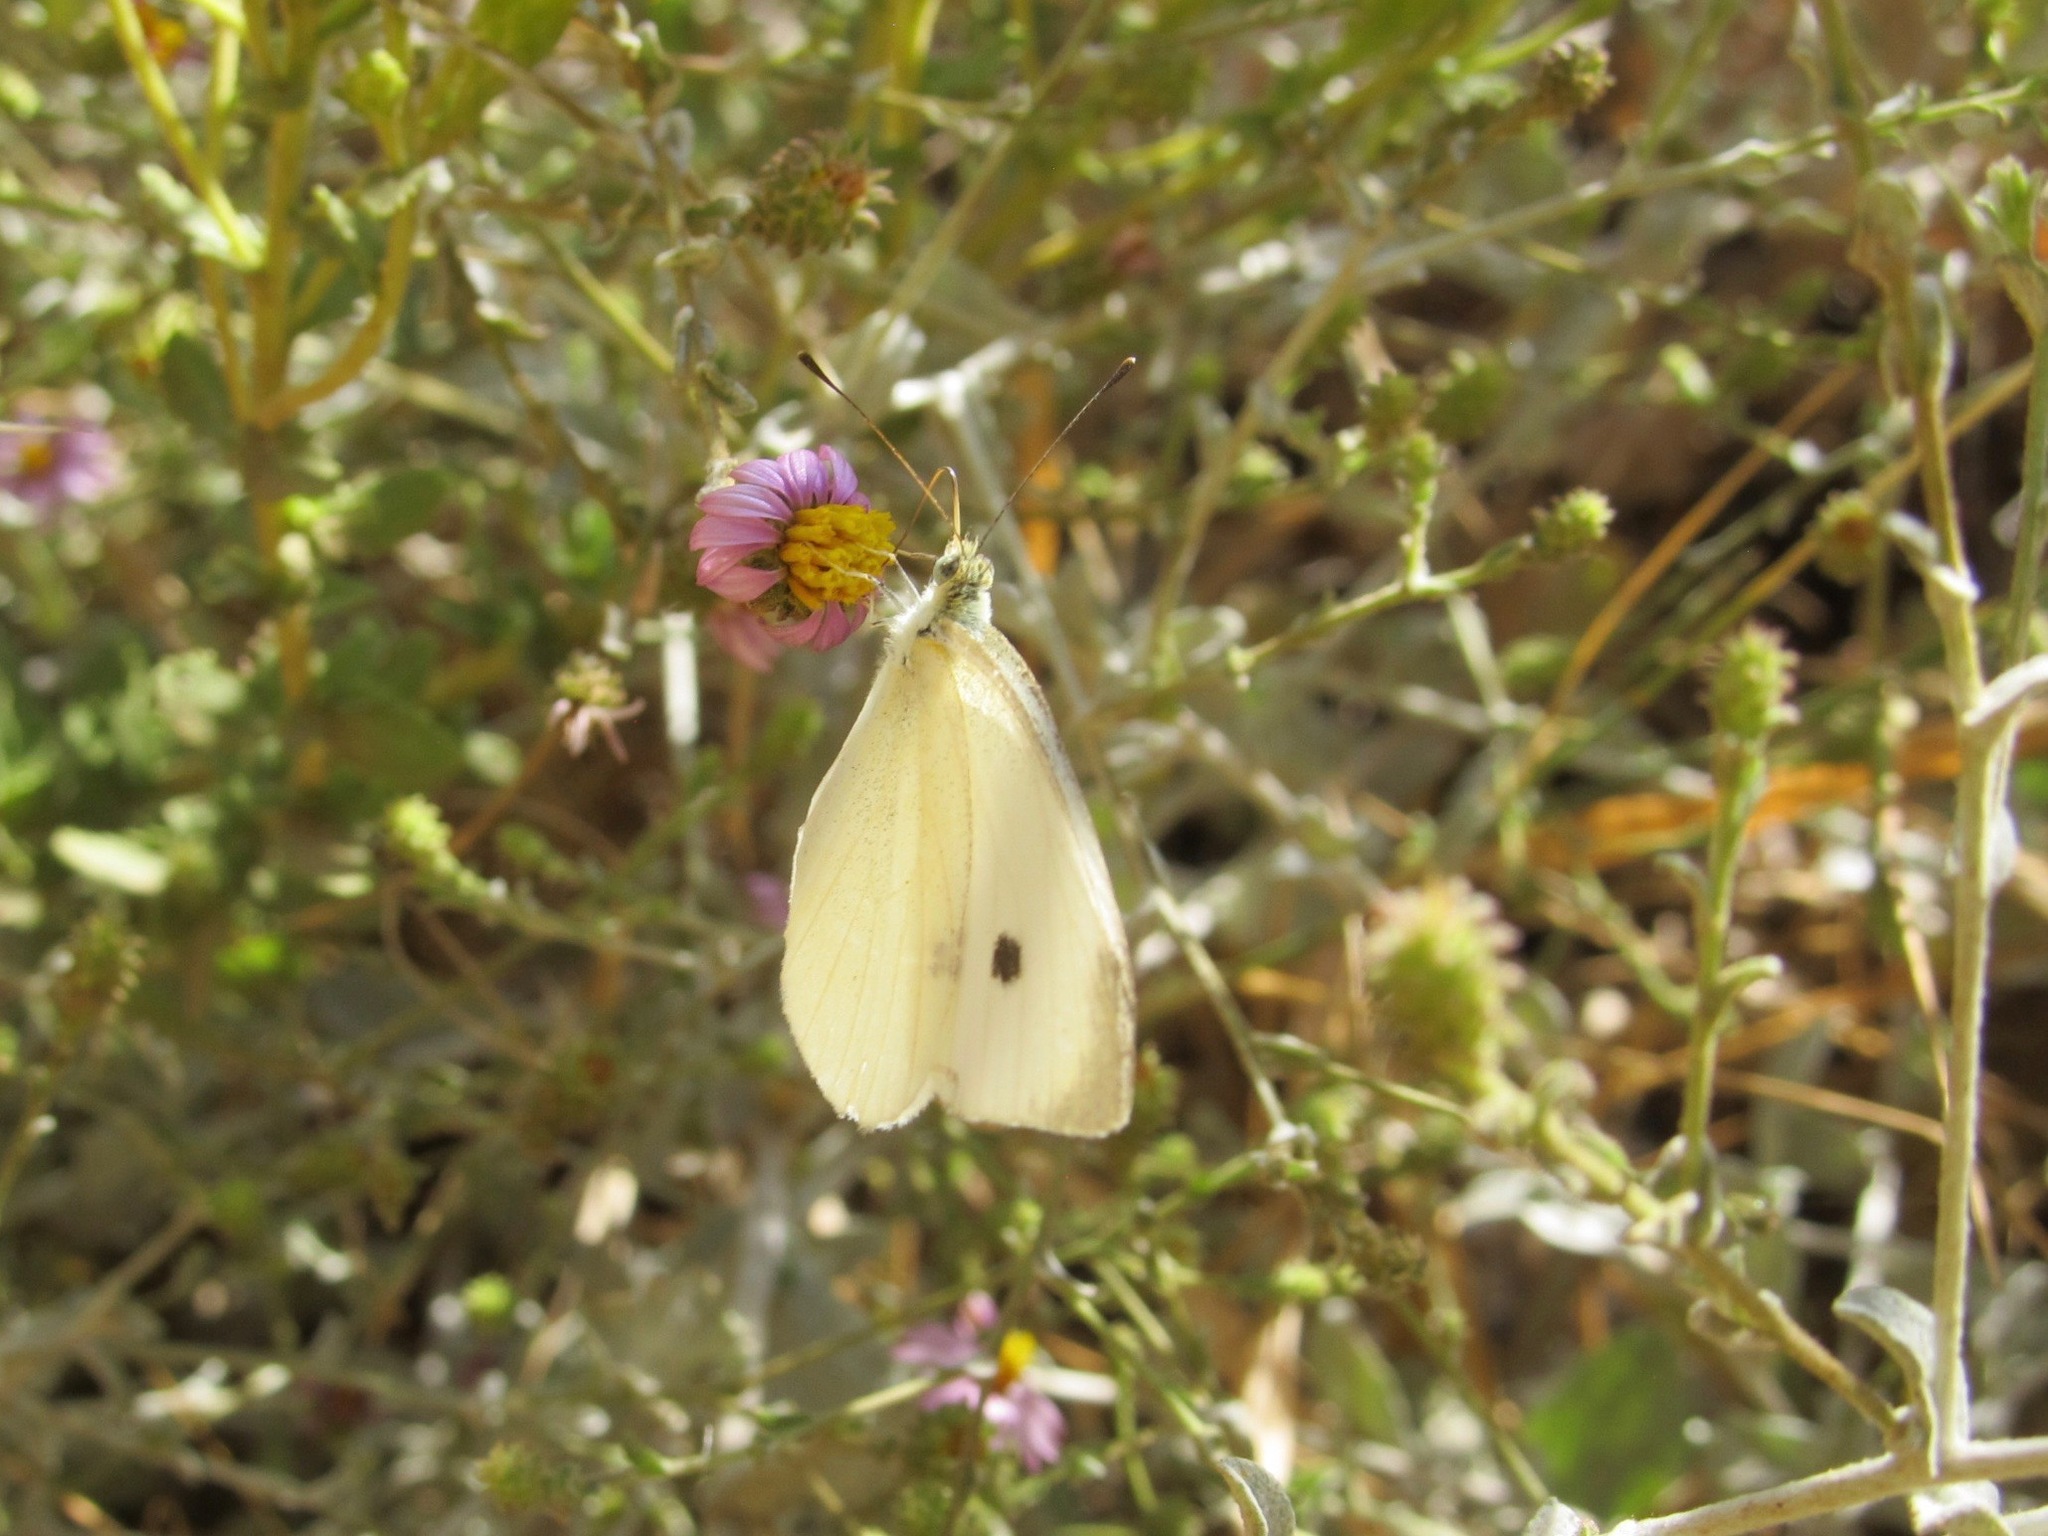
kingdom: Animalia
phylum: Arthropoda
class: Insecta
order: Lepidoptera
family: Pieridae
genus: Pieris
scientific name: Pieris rapae
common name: Small white
